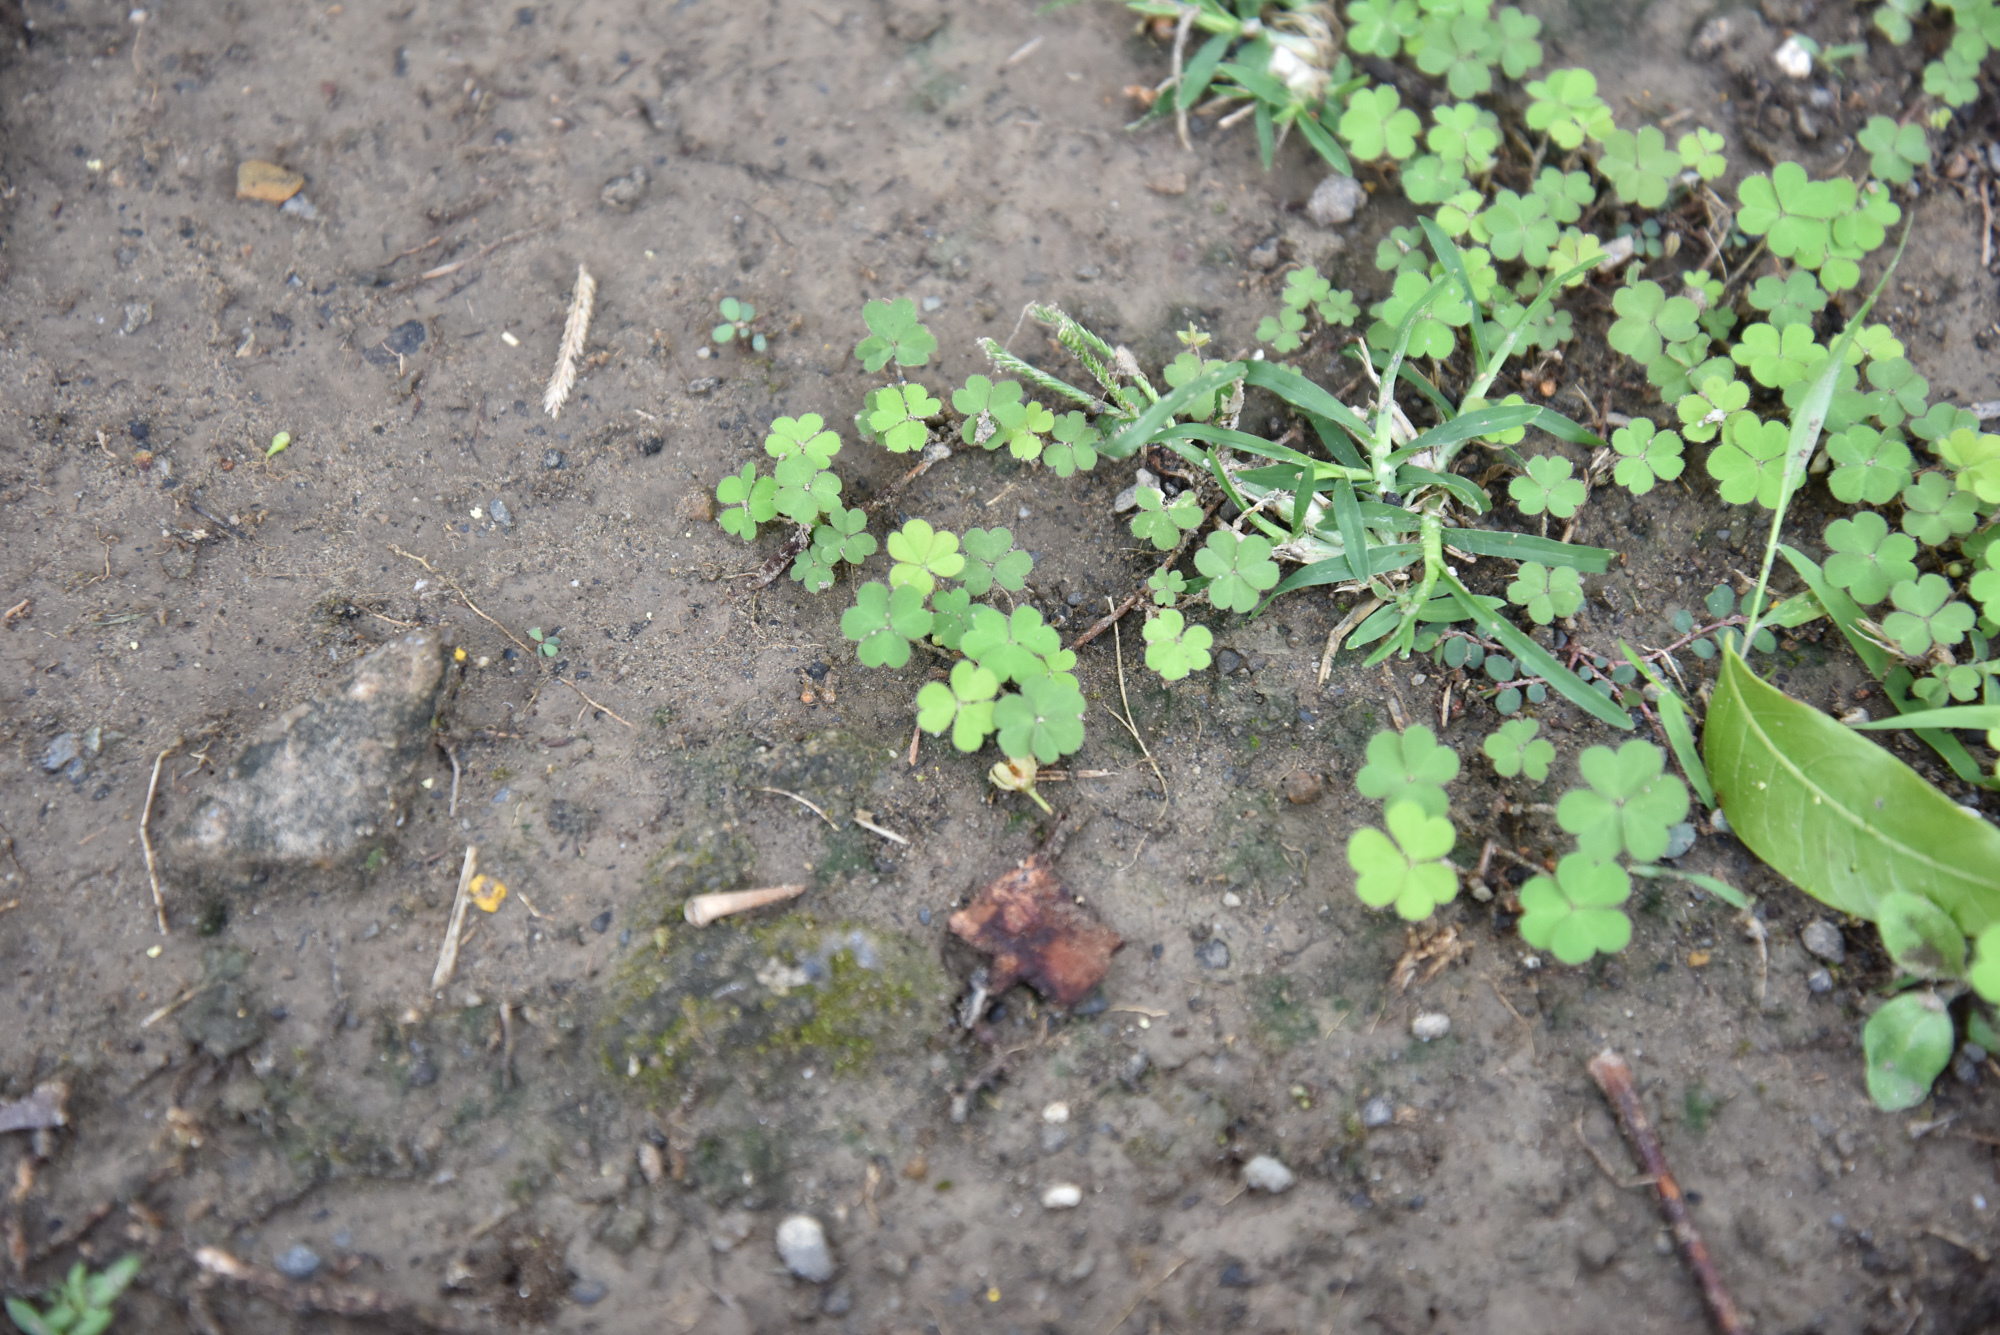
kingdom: Plantae
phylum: Tracheophyta
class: Magnoliopsida
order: Oxalidales
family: Oxalidaceae
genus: Oxalis
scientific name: Oxalis corniculata
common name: Procumbent yellow-sorrel
